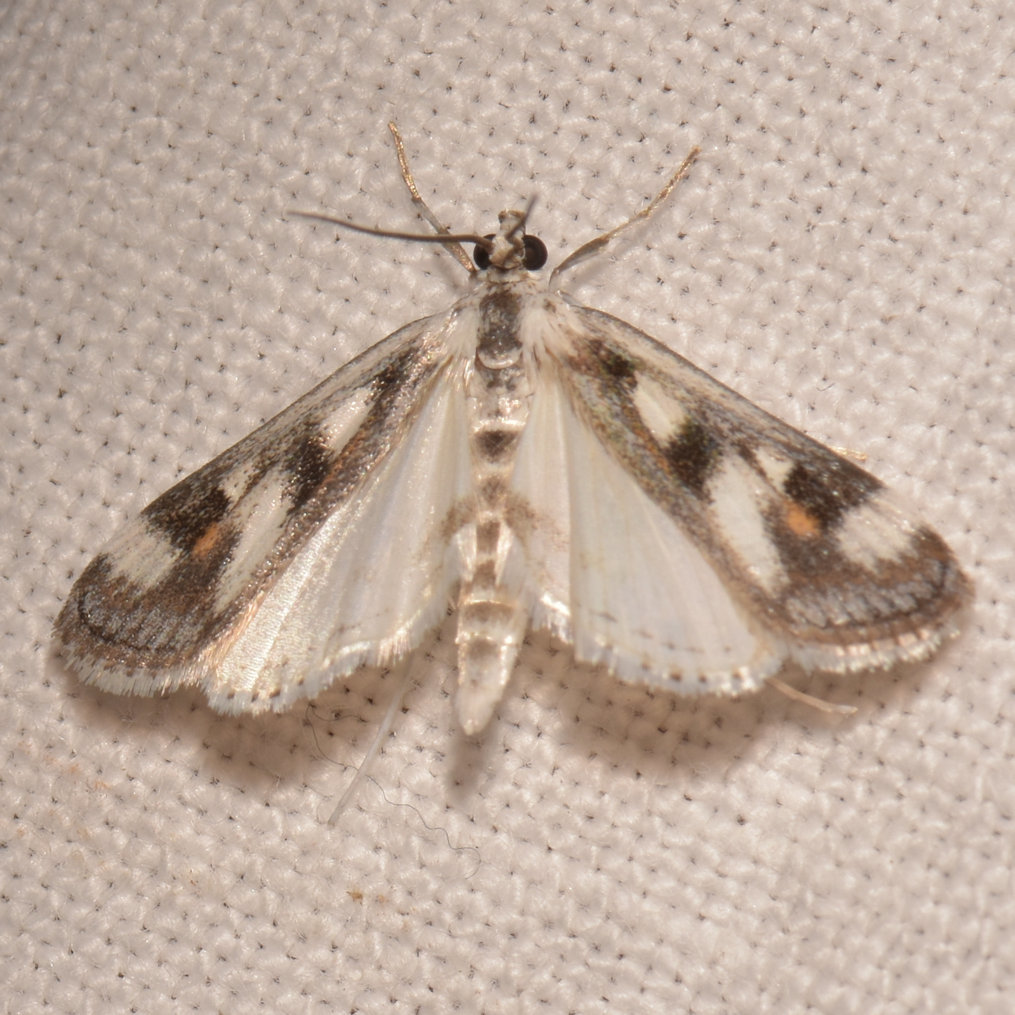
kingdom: Animalia
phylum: Arthropoda
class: Insecta
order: Lepidoptera
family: Crambidae
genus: Parapoynx
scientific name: Parapoynx maculalis
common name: Polymorphic pondweed moth
